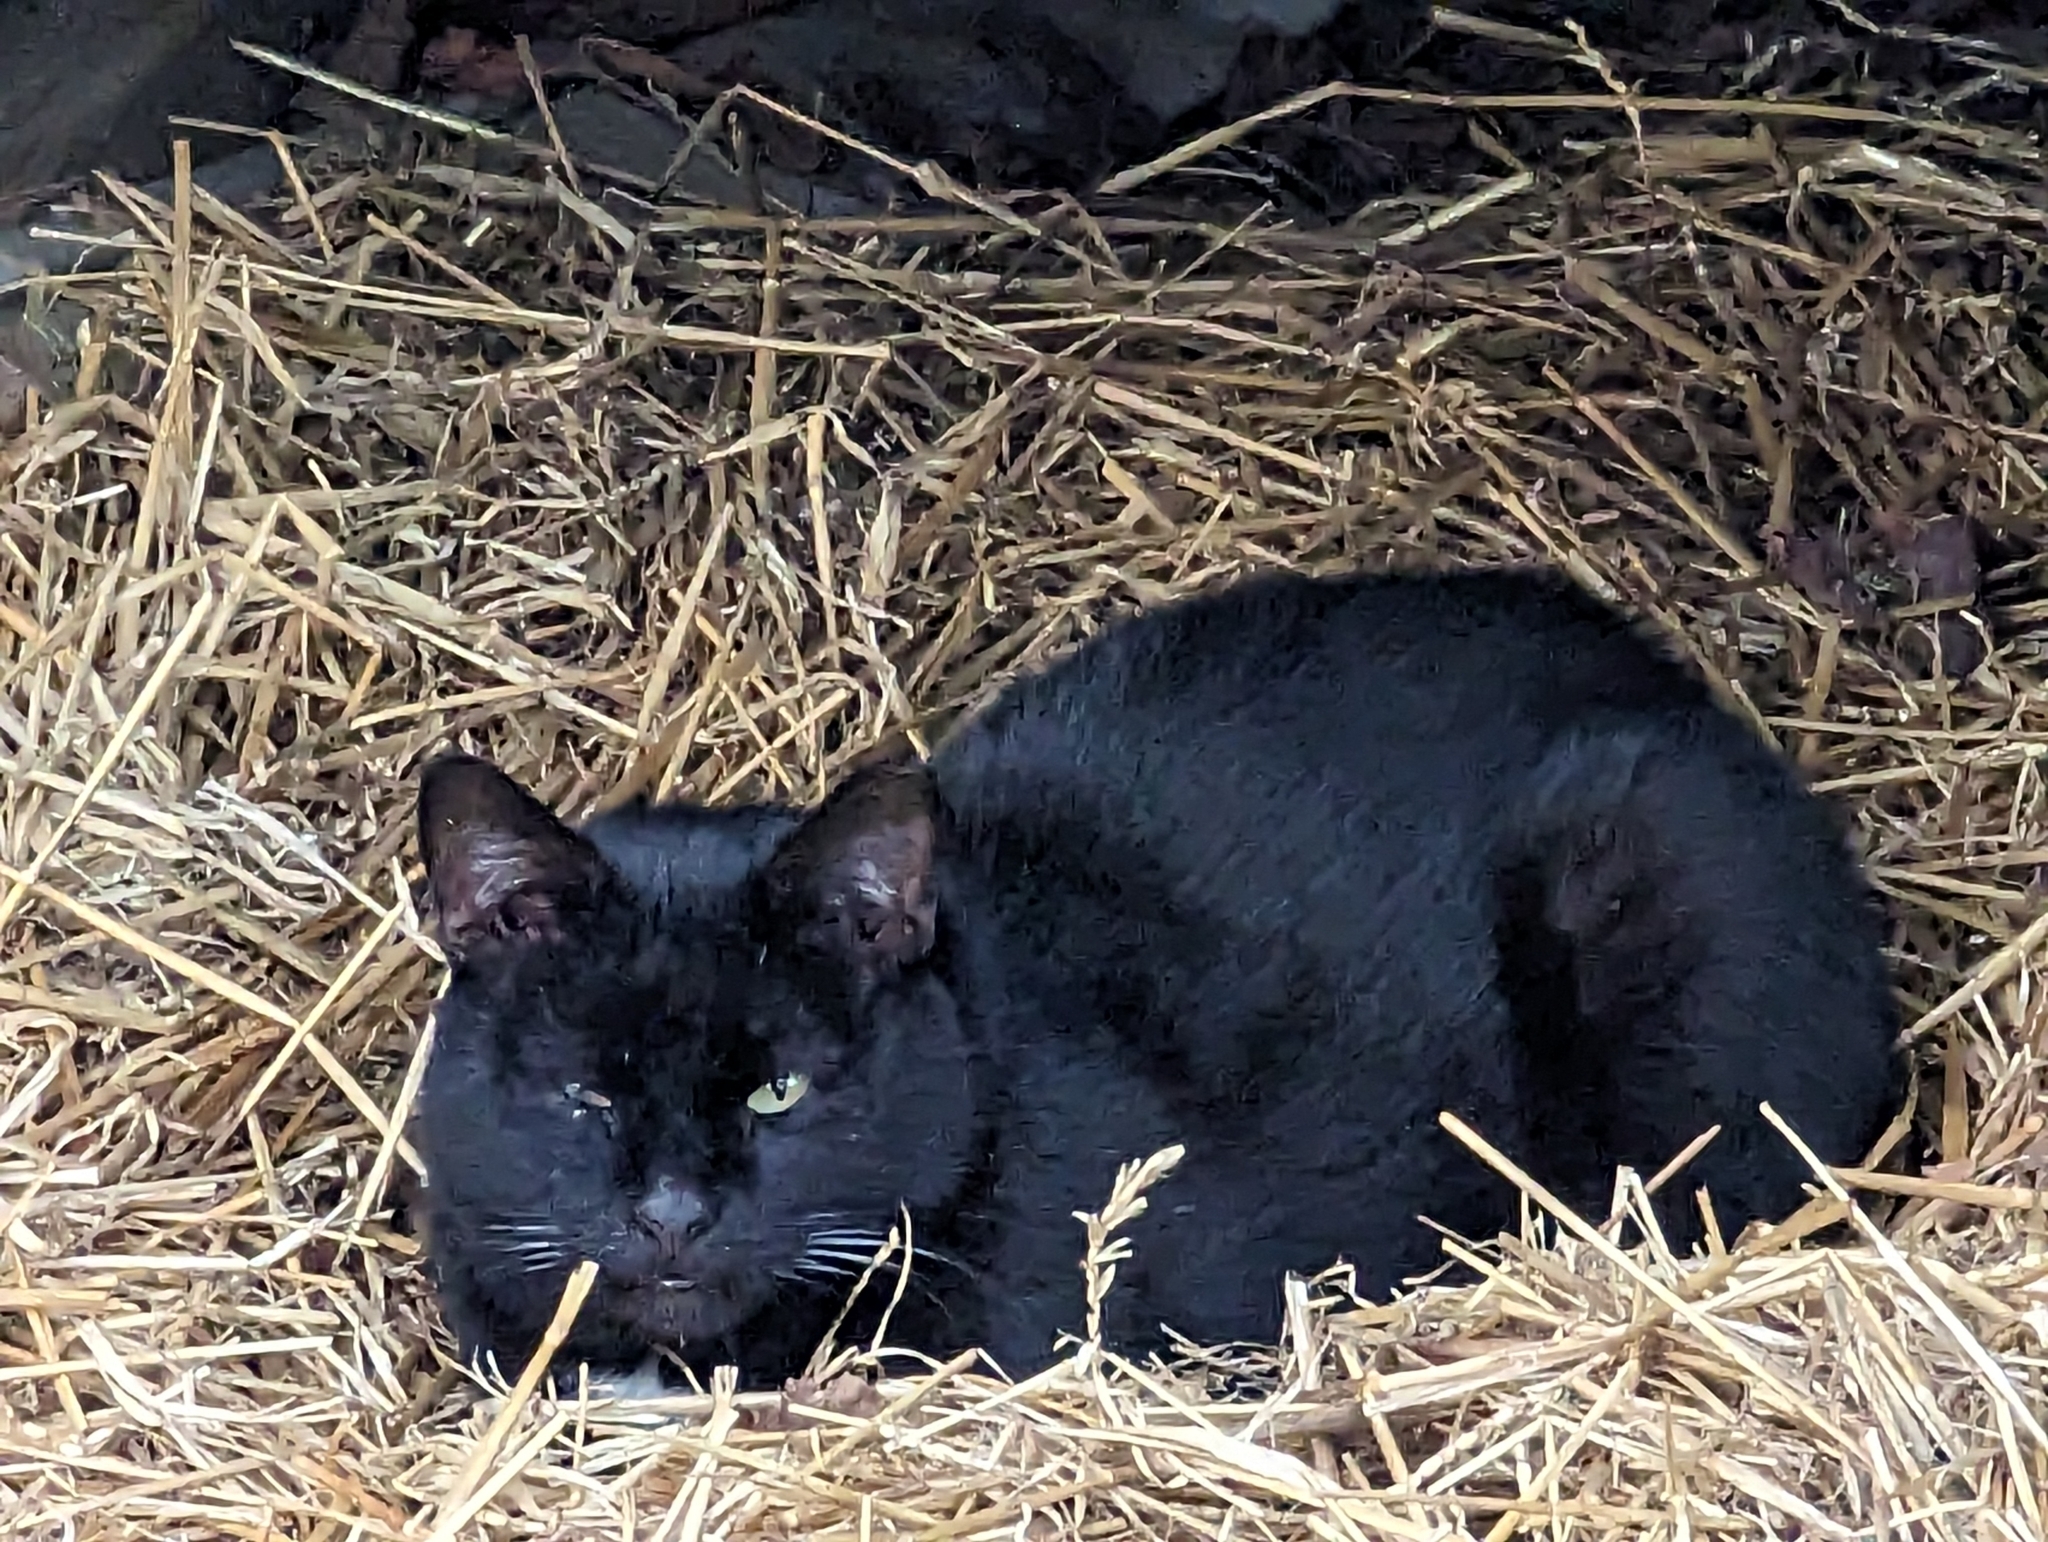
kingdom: Animalia
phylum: Chordata
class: Mammalia
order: Carnivora
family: Felidae
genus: Felis
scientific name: Felis catus
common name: Domestic cat
